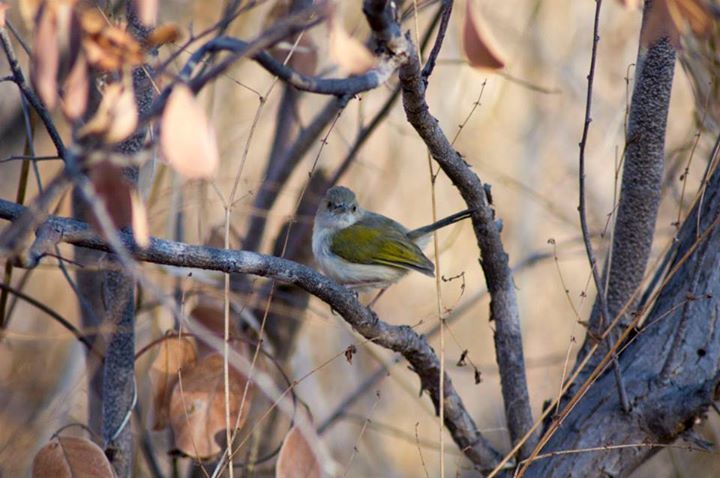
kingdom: Animalia
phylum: Chordata
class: Aves
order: Passeriformes
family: Cisticolidae
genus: Camaroptera
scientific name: Camaroptera brachyura
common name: Green-backed camaroptera
